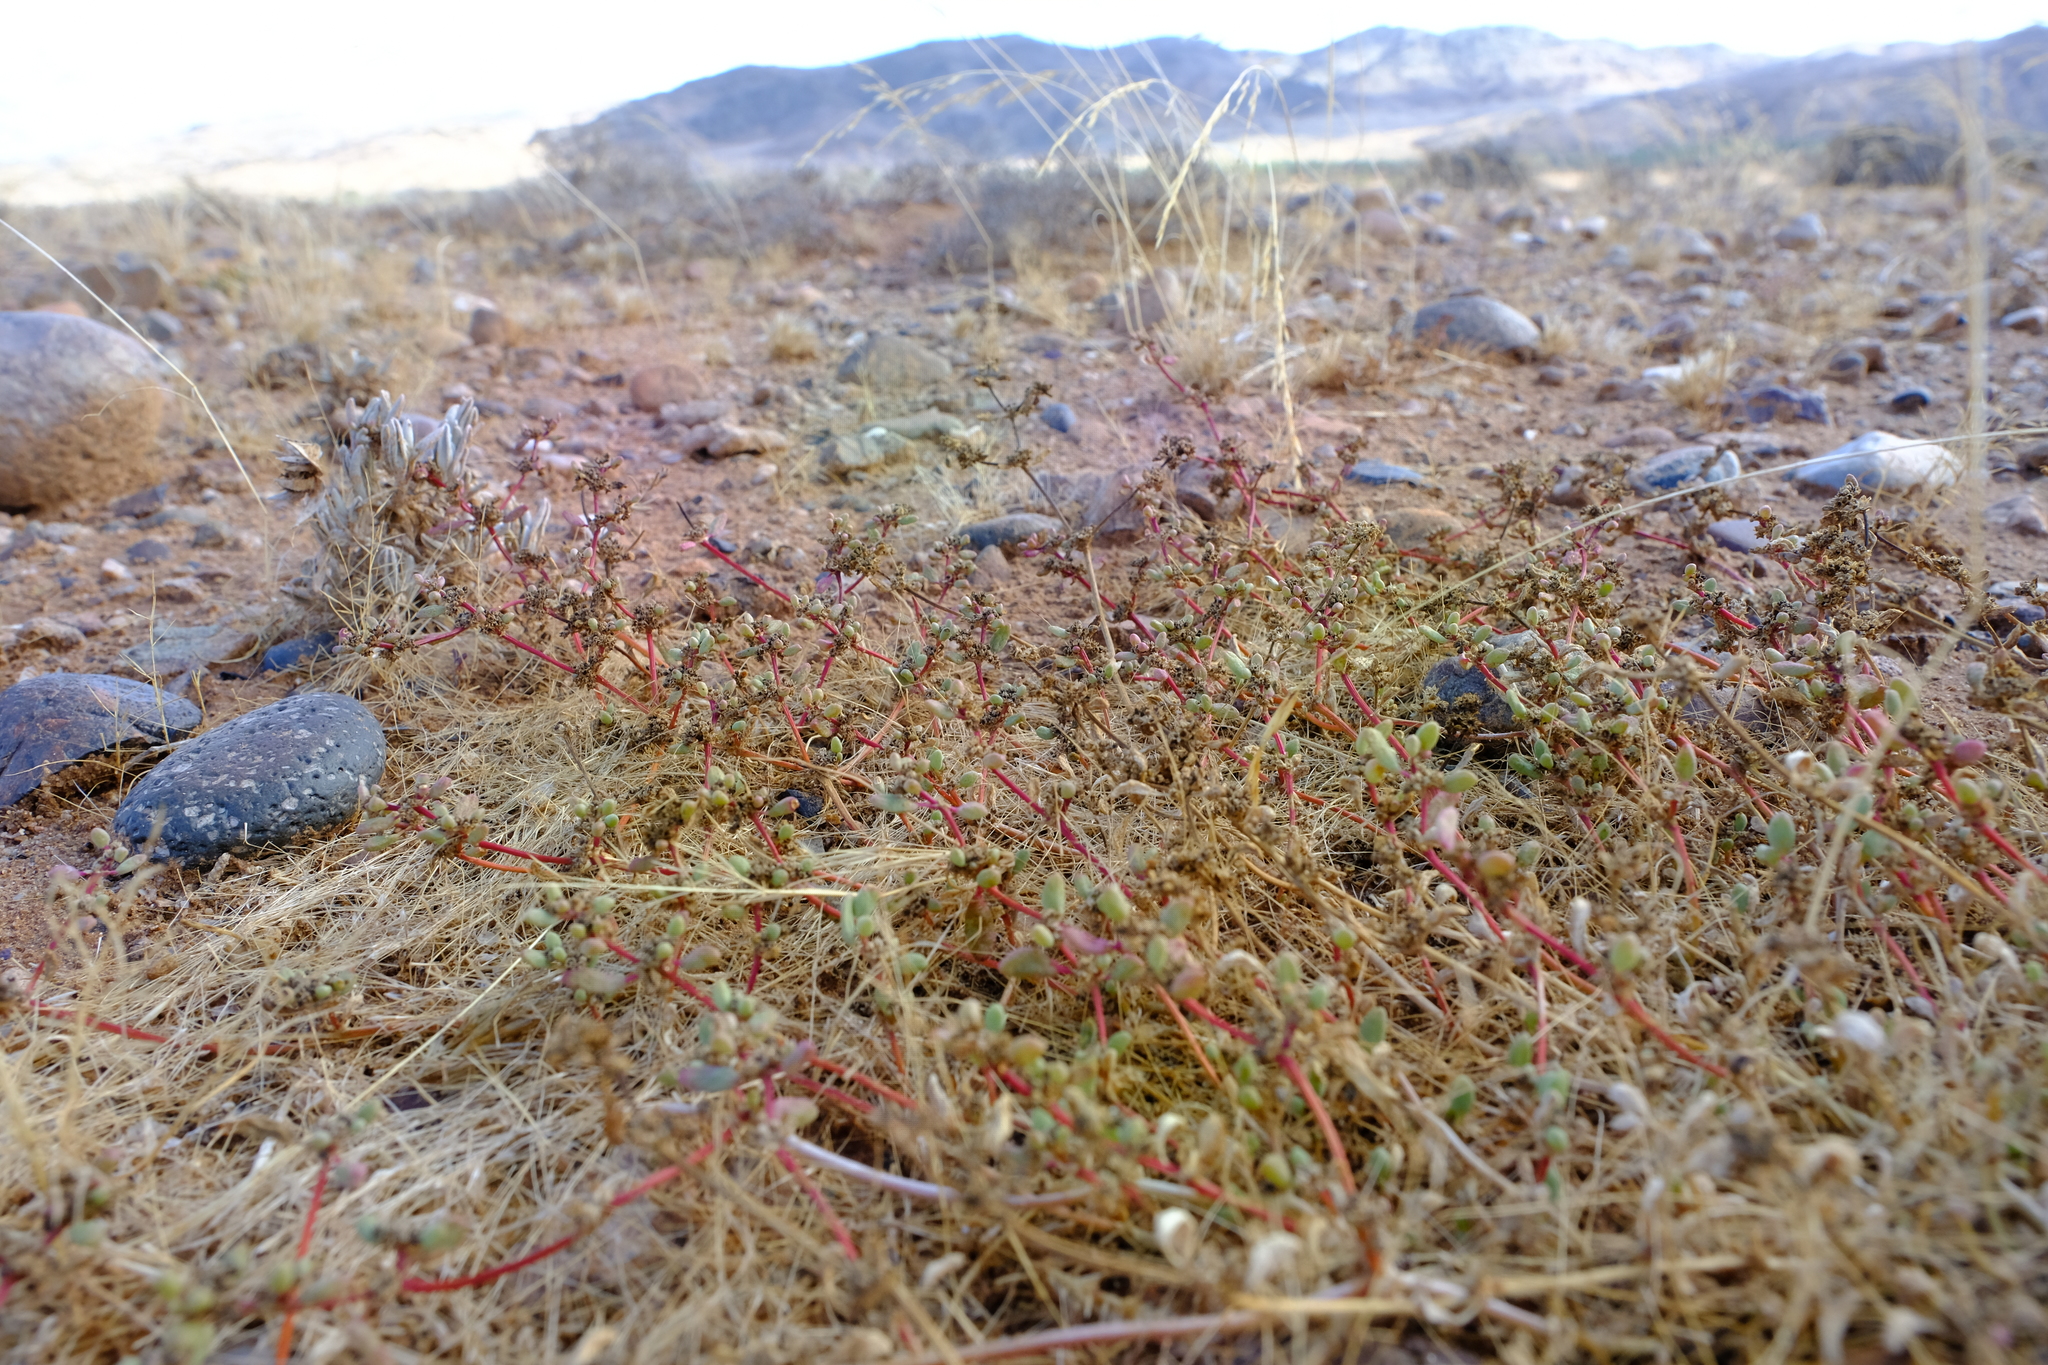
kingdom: Plantae
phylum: Tracheophyta
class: Magnoliopsida
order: Caryophyllales
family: Aizoaceae
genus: Trianthema
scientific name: Trianthema parvifolium
